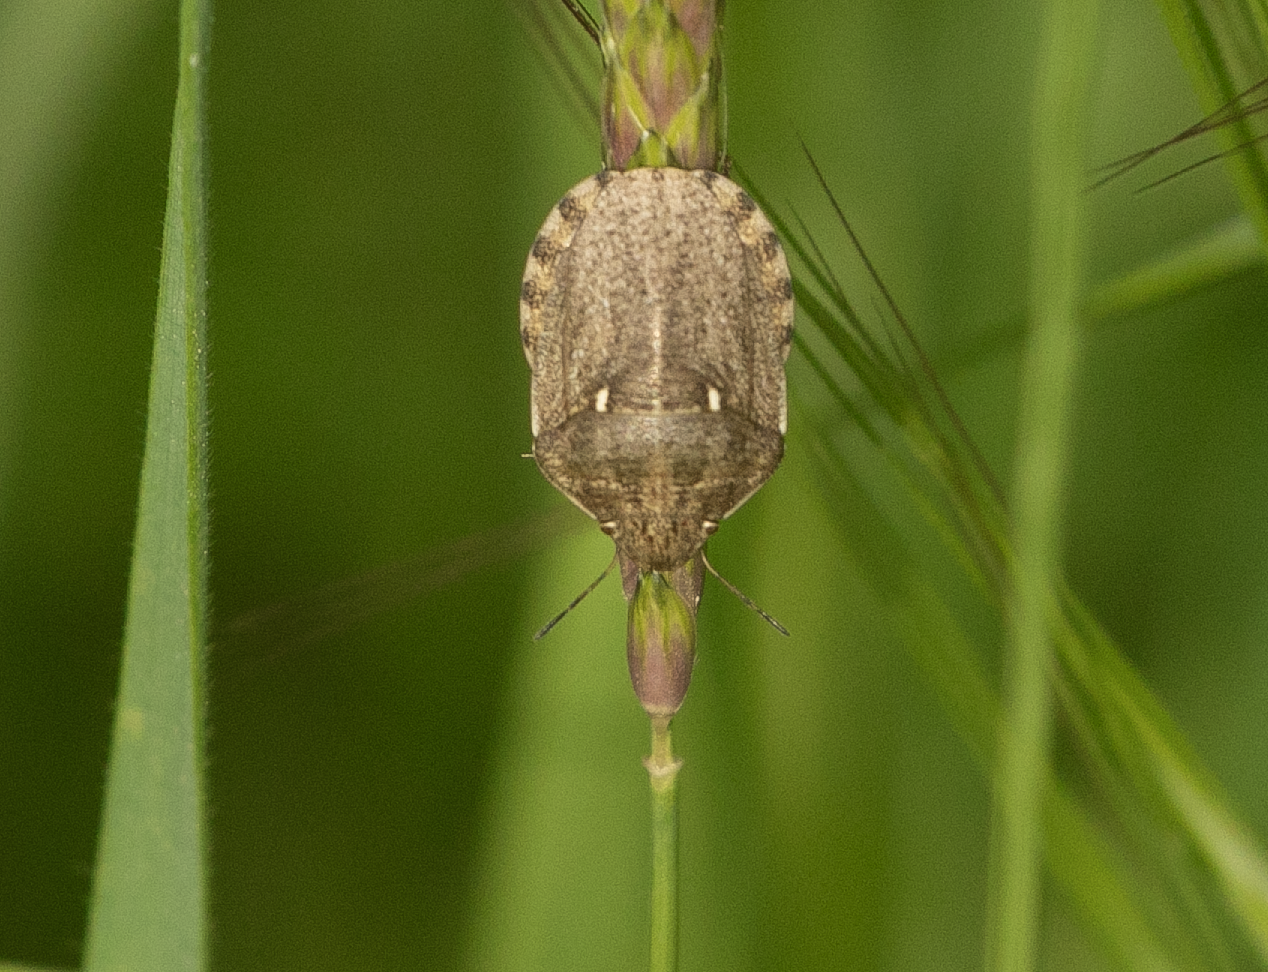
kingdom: Animalia
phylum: Arthropoda
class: Insecta
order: Hemiptera
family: Scutelleridae
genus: Eurygaster
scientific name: Eurygaster maura
